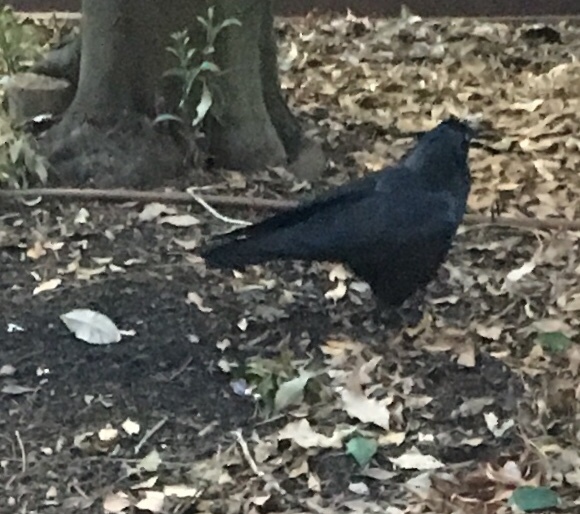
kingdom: Animalia
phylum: Chordata
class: Aves
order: Passeriformes
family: Corvidae
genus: Corvus
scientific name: Corvus mellori
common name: Little raven
